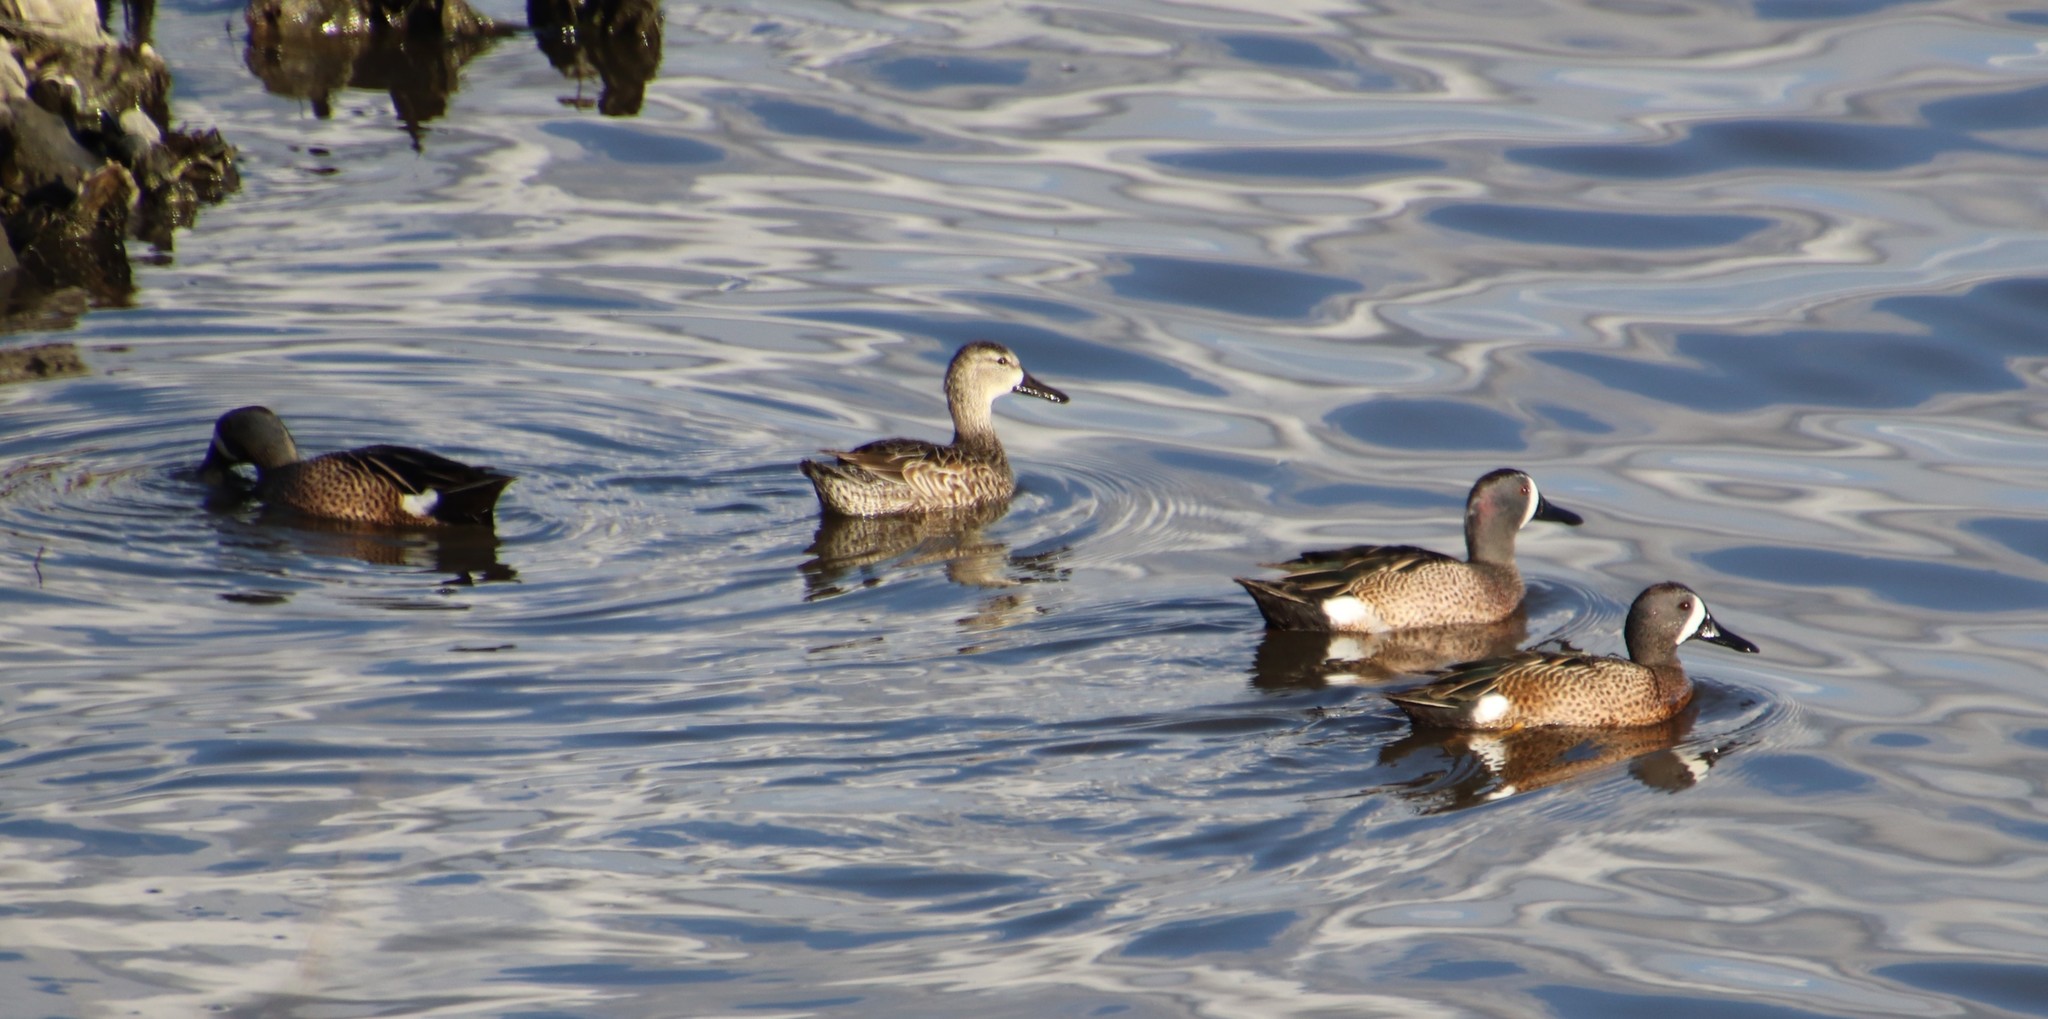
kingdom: Animalia
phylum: Chordata
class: Aves
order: Anseriformes
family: Anatidae
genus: Spatula
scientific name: Spatula discors
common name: Blue-winged teal
